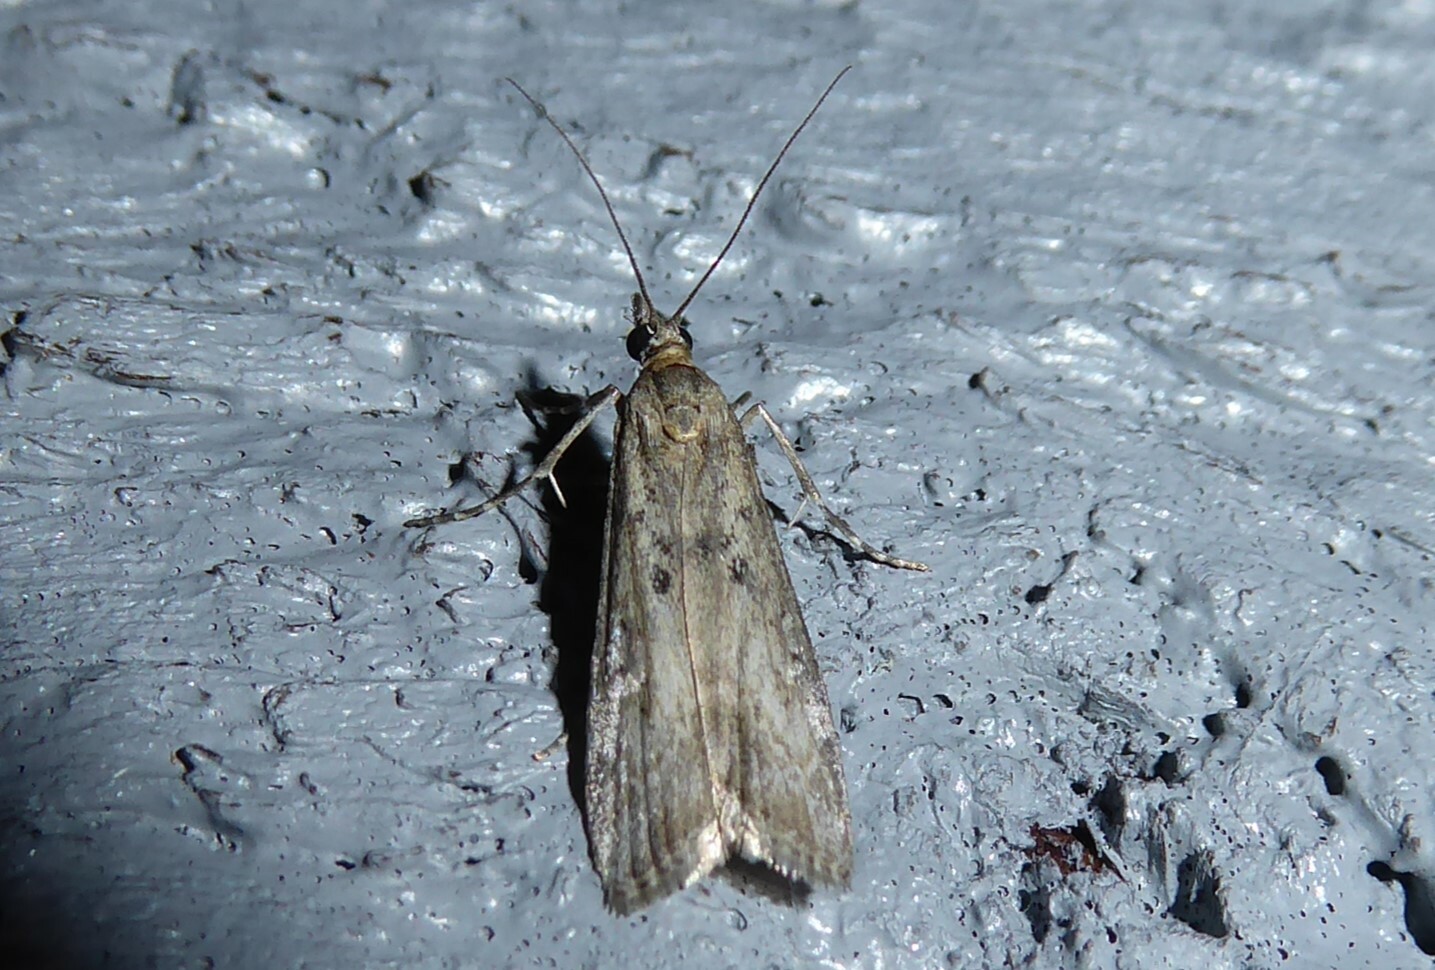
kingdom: Animalia
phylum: Arthropoda
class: Insecta
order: Lepidoptera
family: Crambidae
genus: Eudonia
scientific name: Eudonia leptalea
